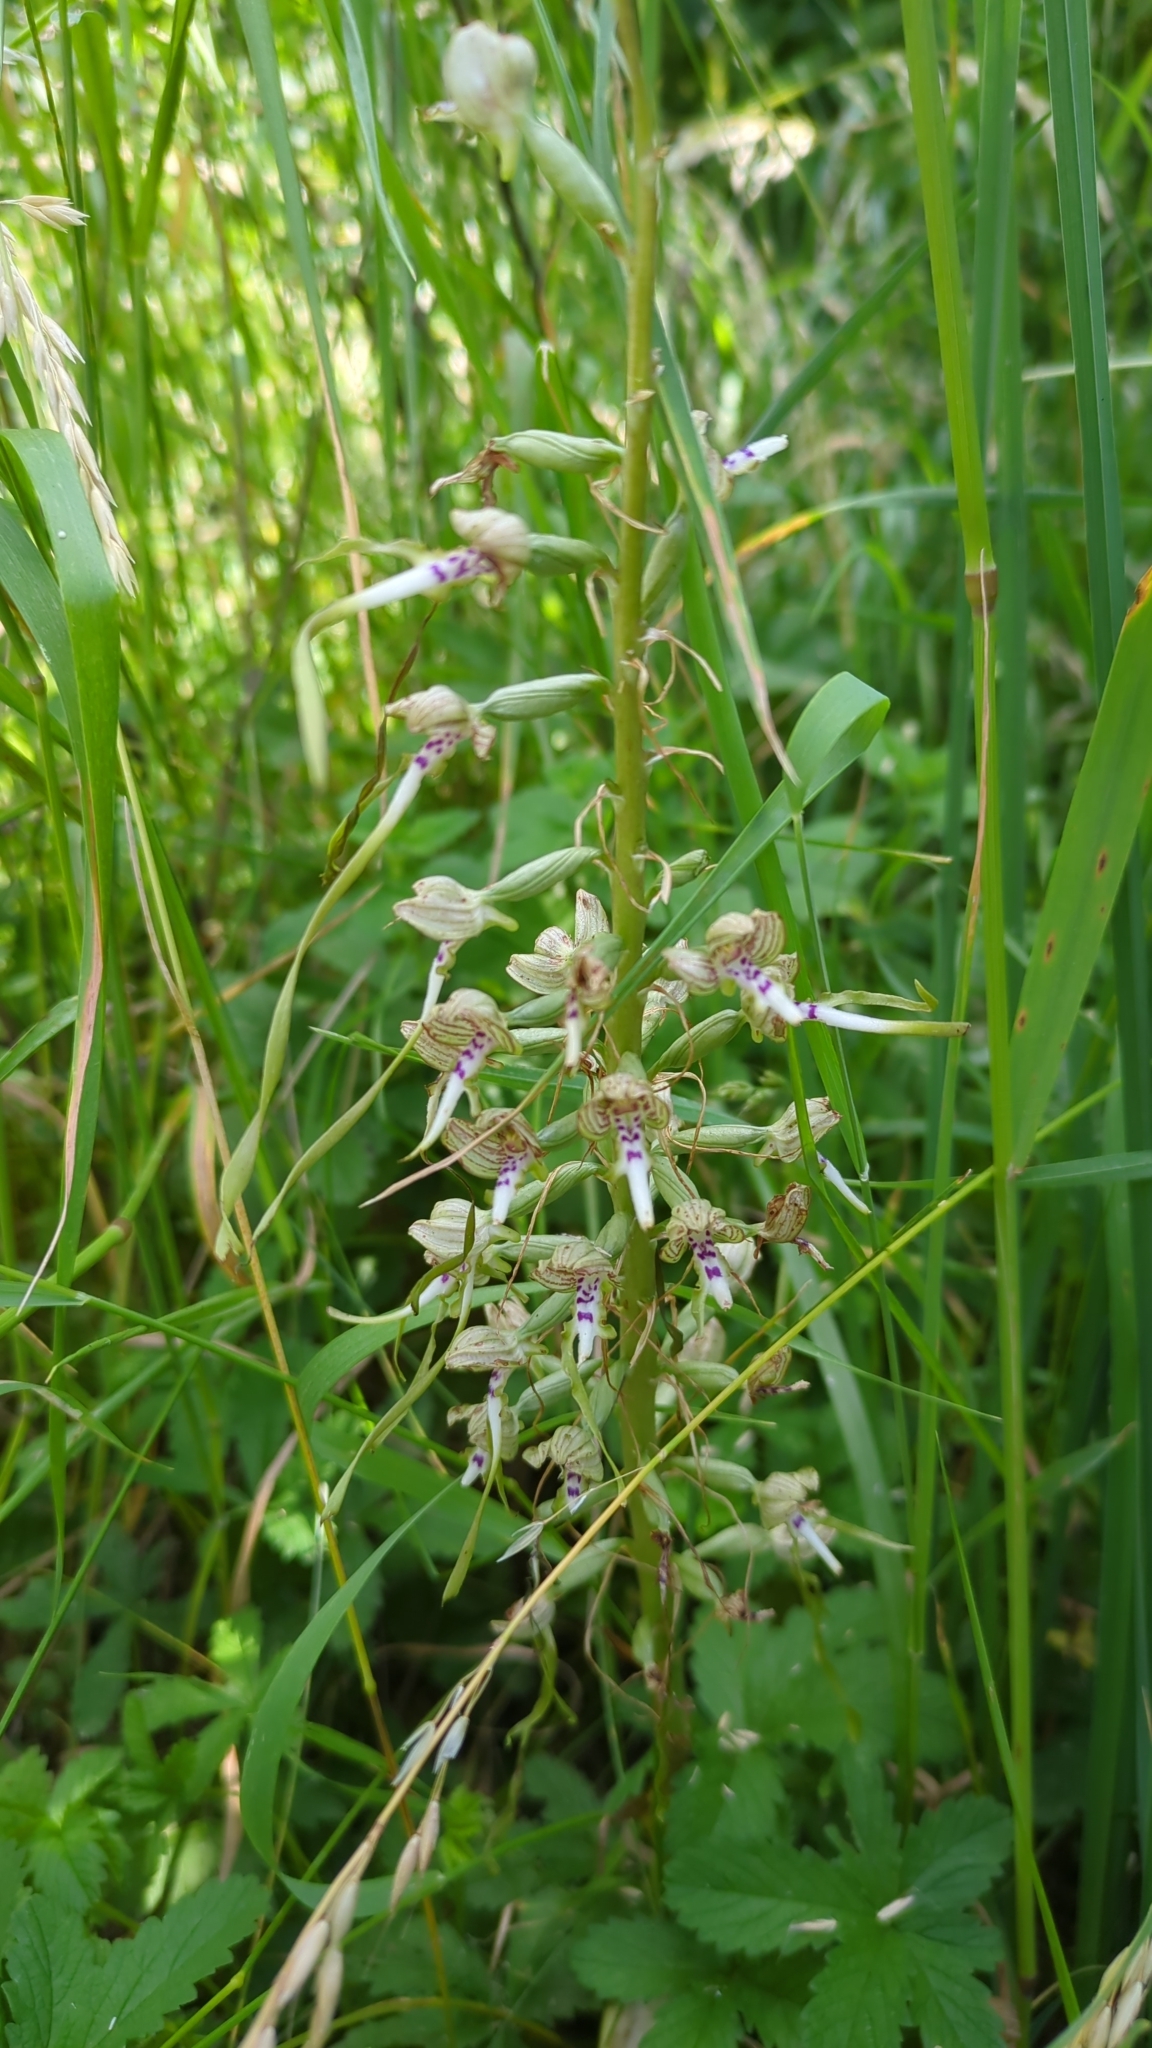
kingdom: Plantae
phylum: Tracheophyta
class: Liliopsida
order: Asparagales
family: Orchidaceae
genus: Himantoglossum
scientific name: Himantoglossum hircinum
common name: Lizard orchid
